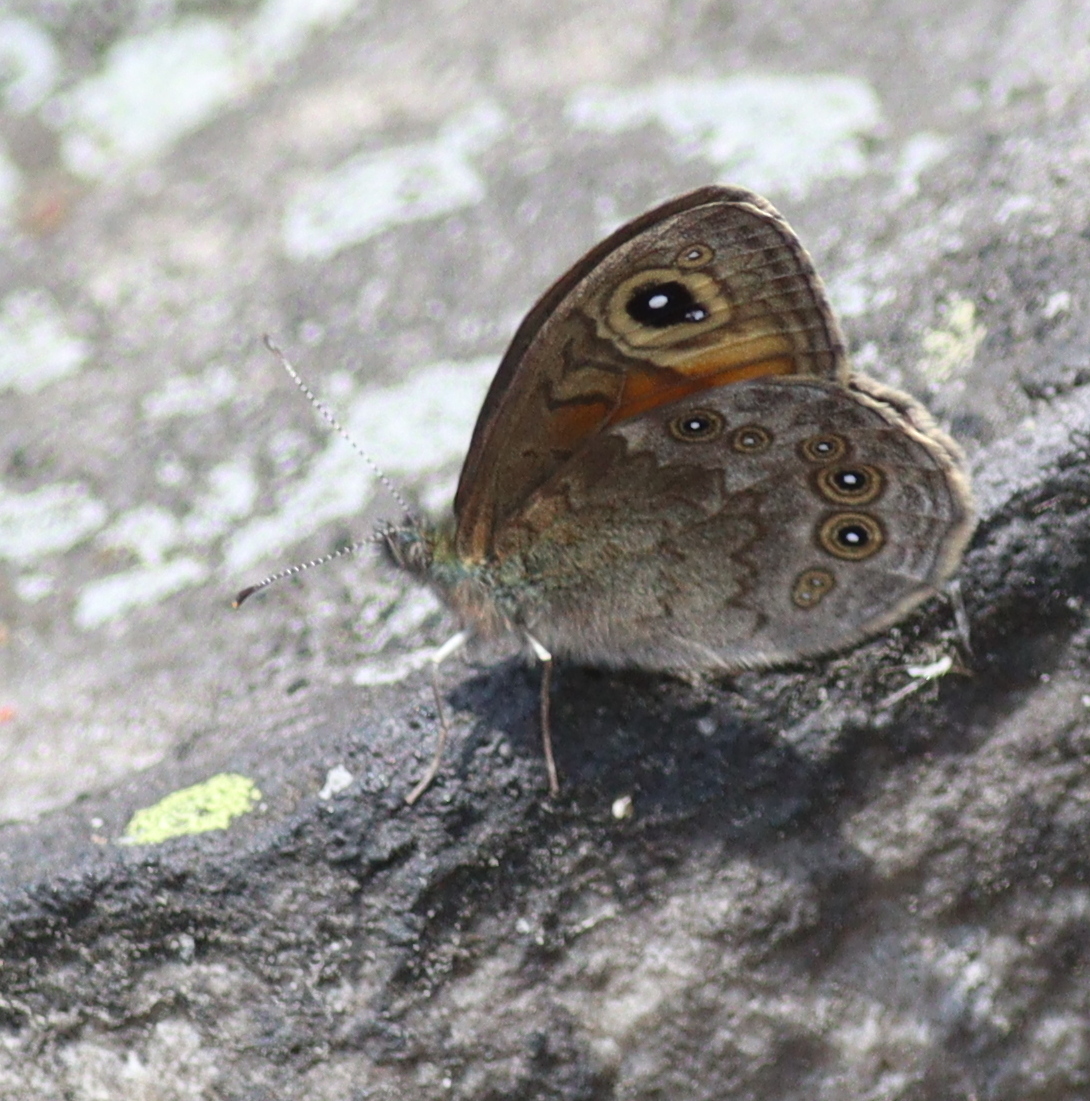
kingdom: Animalia
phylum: Arthropoda
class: Insecta
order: Lepidoptera
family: Nymphalidae
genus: Pararge
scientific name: Pararge Lasiommata maera
